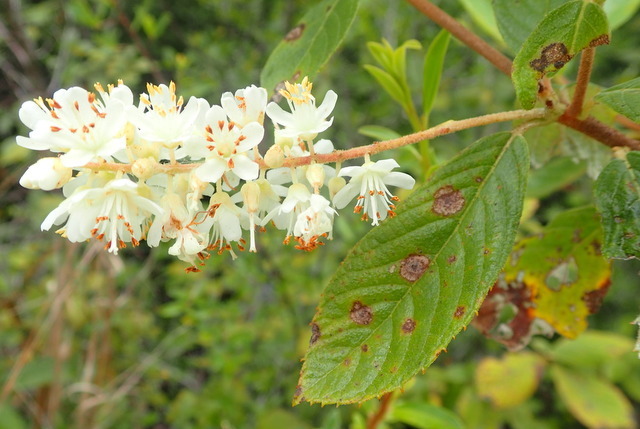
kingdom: Plantae
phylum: Tracheophyta
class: Magnoliopsida
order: Ericales
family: Clethraceae
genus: Clethra
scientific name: Clethra tomentosa
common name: Downy sweet pepperbush
